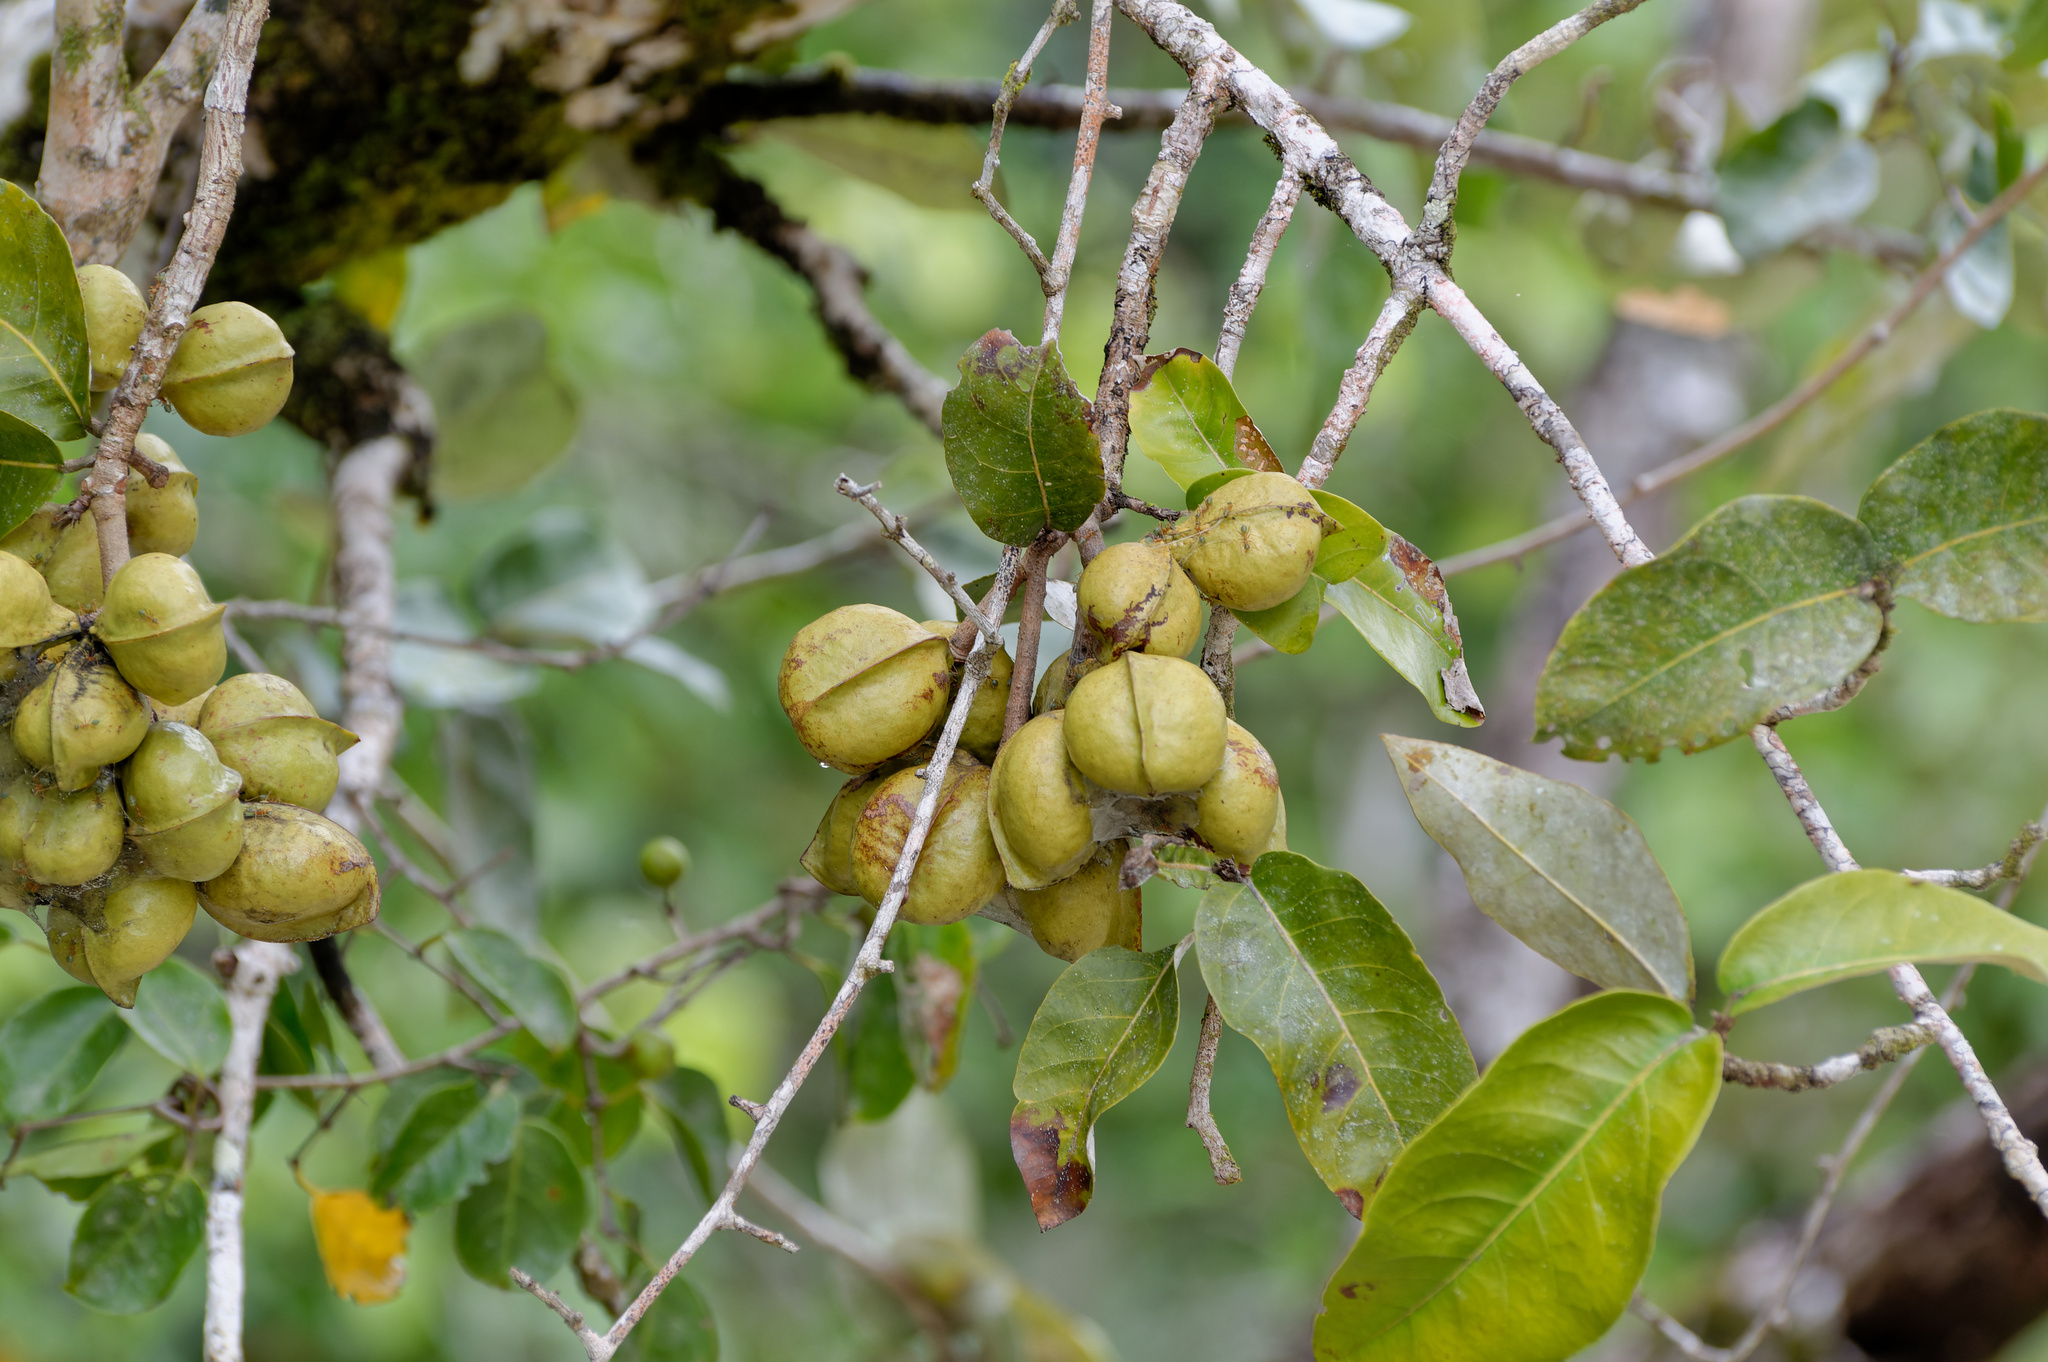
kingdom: Plantae
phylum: Tracheophyta
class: Magnoliopsida
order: Malvales
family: Malvaceae
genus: Heritiera
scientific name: Heritiera littoralis
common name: Looking-glass mangrove
